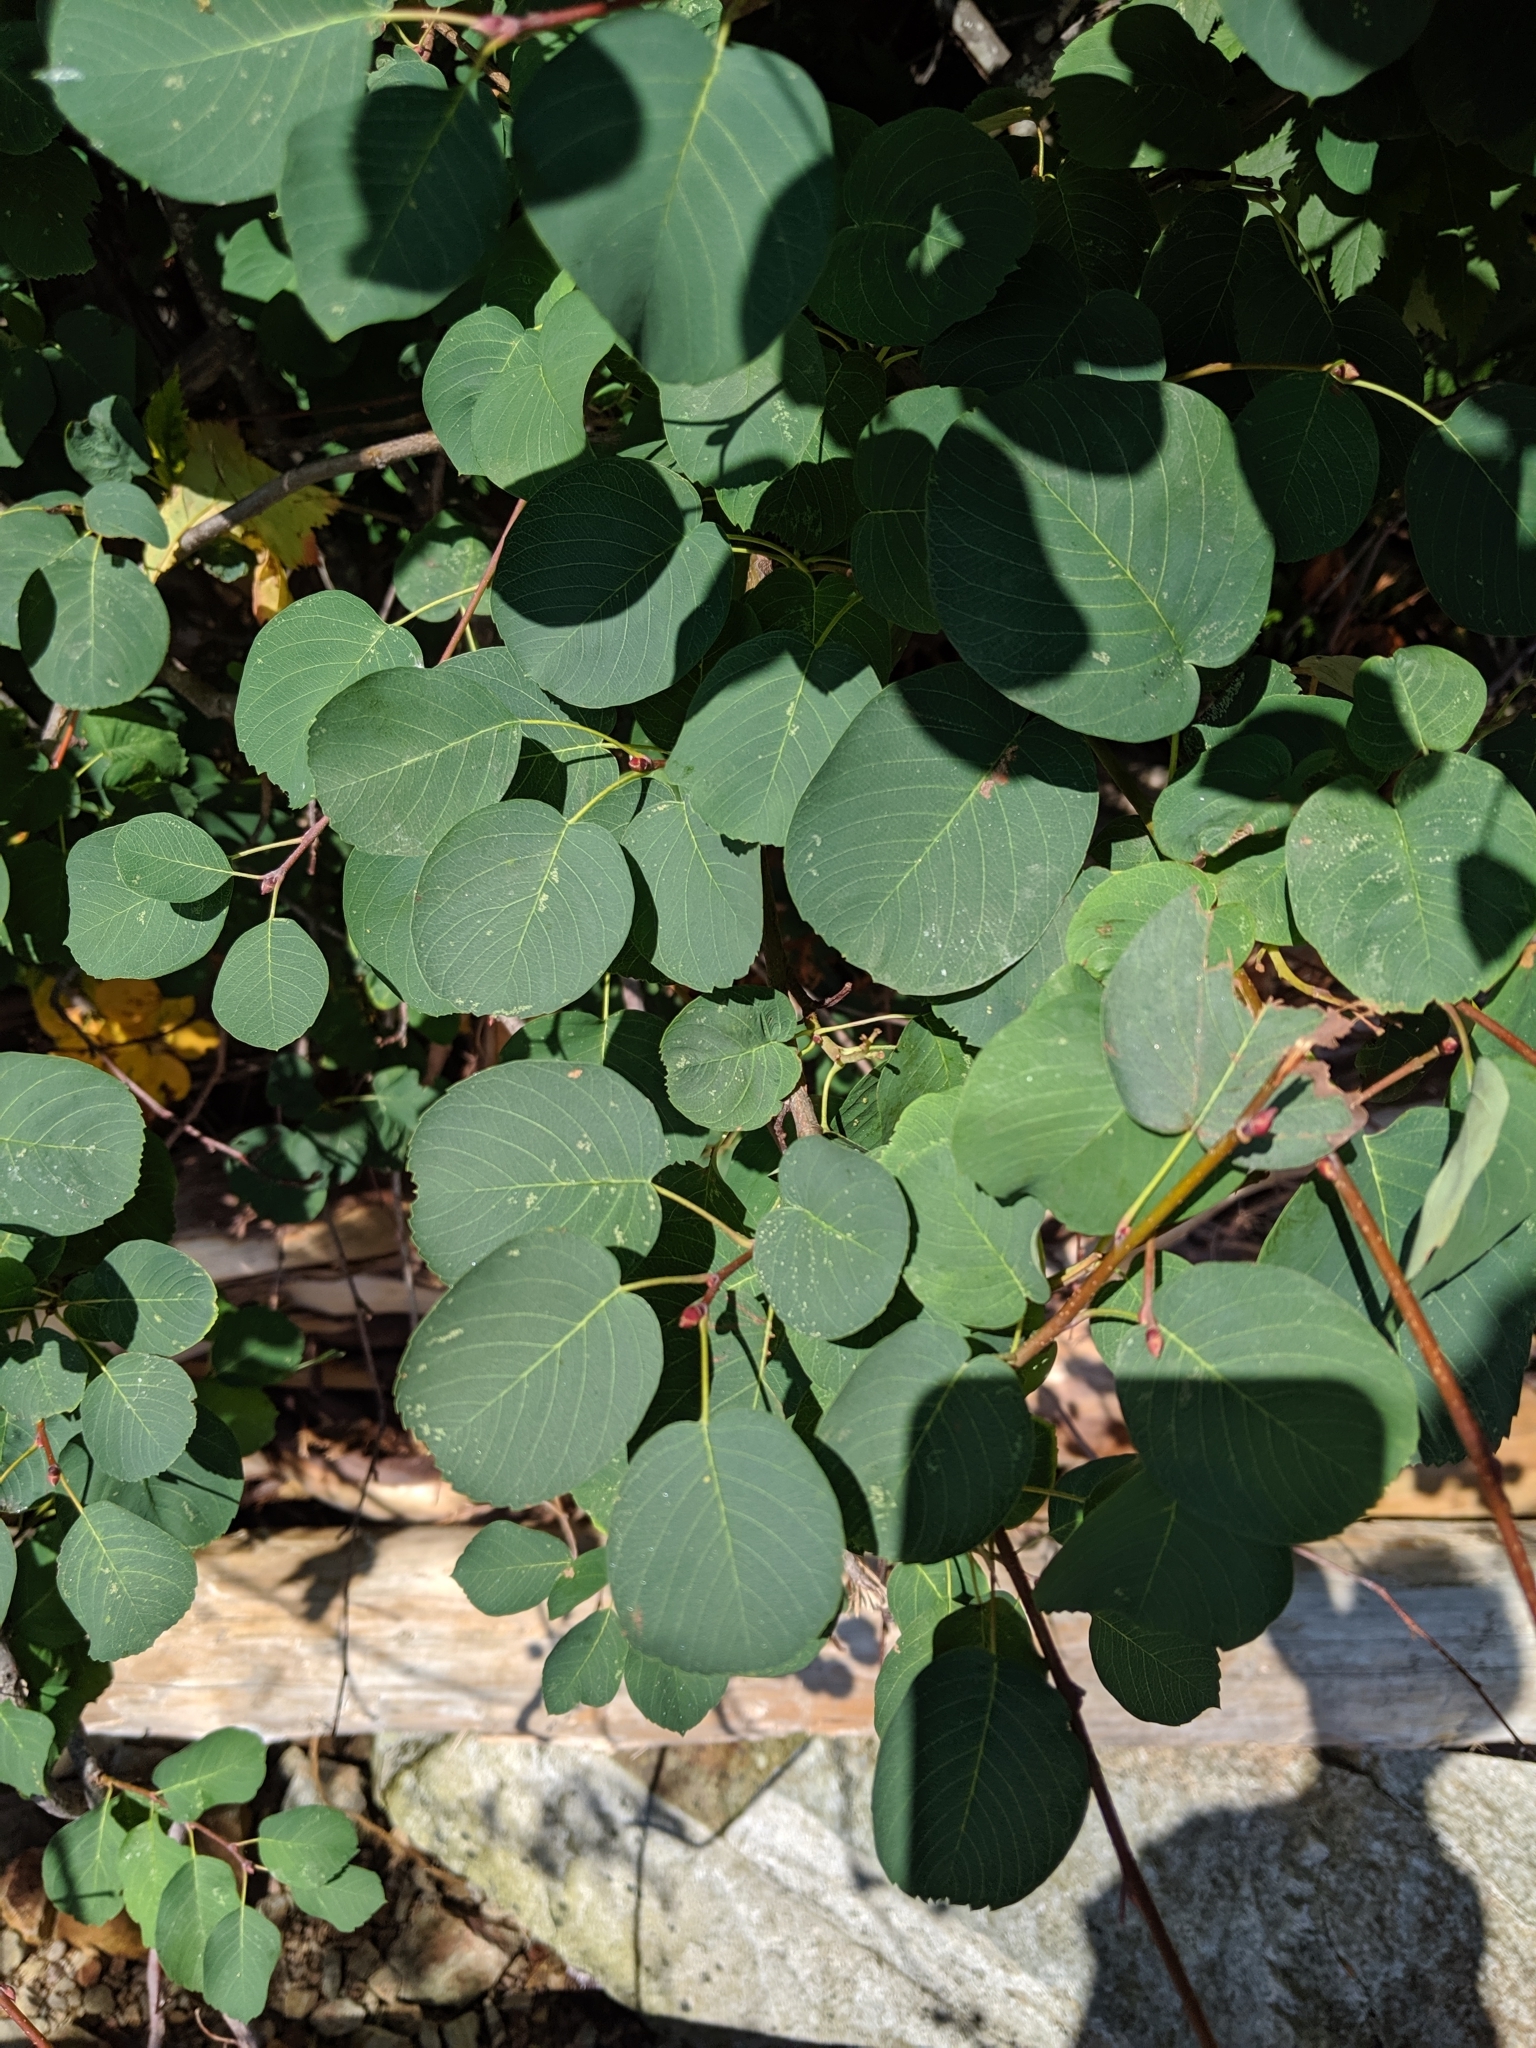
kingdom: Plantae
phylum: Tracheophyta
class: Magnoliopsida
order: Rosales
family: Rosaceae
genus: Amelanchier
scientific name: Amelanchier alnifolia
